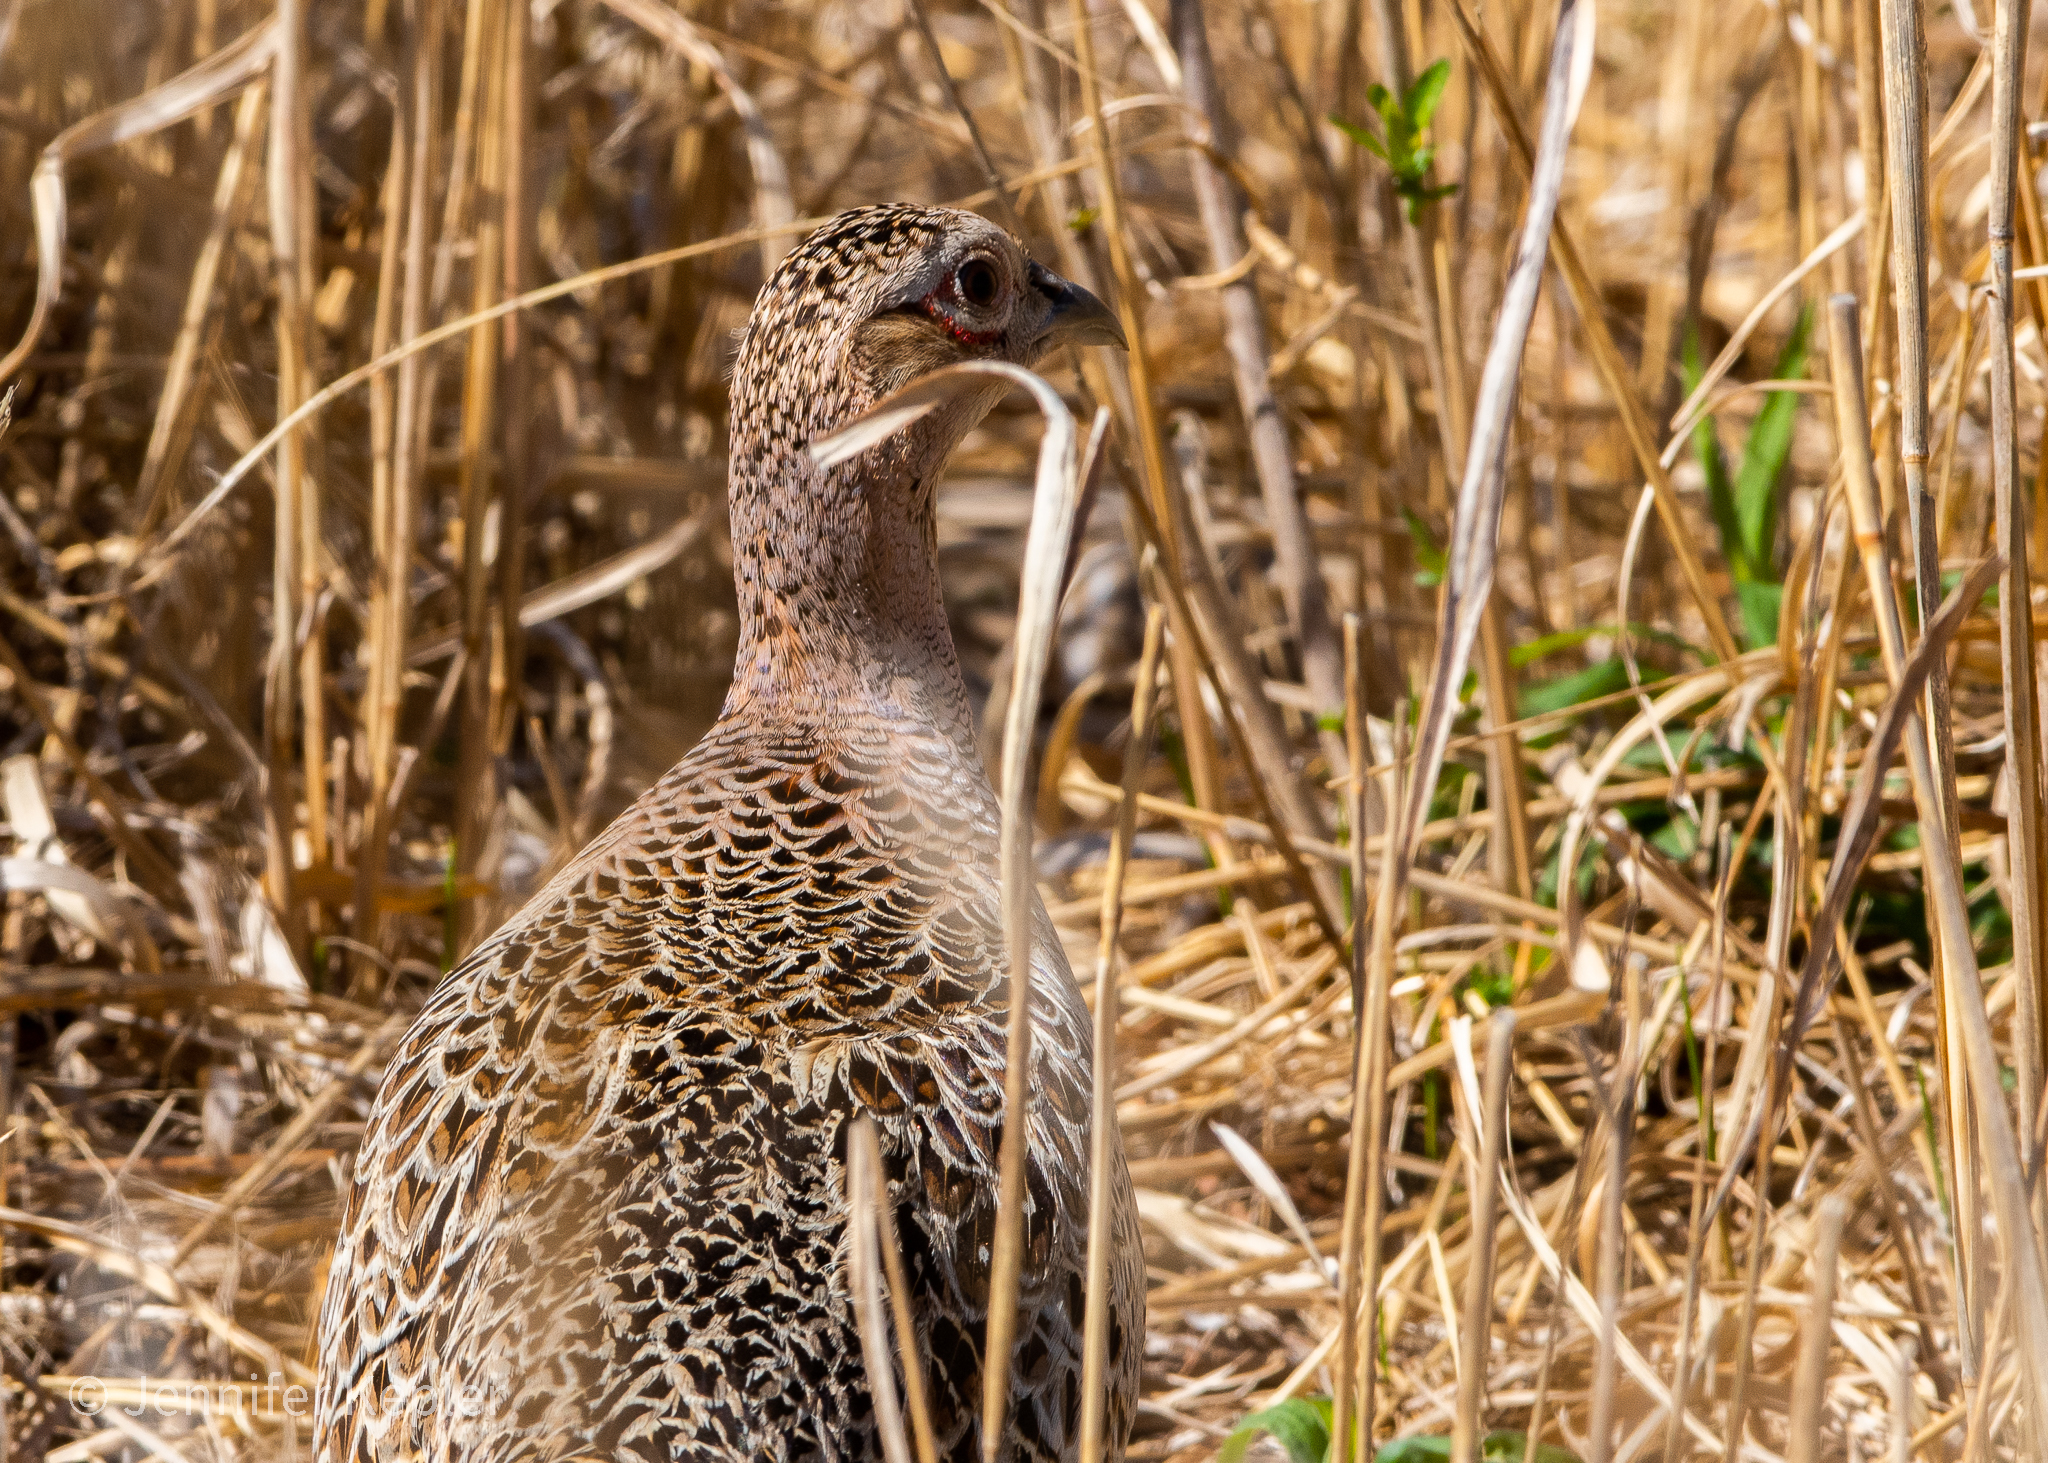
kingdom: Animalia
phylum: Chordata
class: Aves
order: Galliformes
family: Phasianidae
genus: Phasianus
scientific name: Phasianus colchicus
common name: Common pheasant
